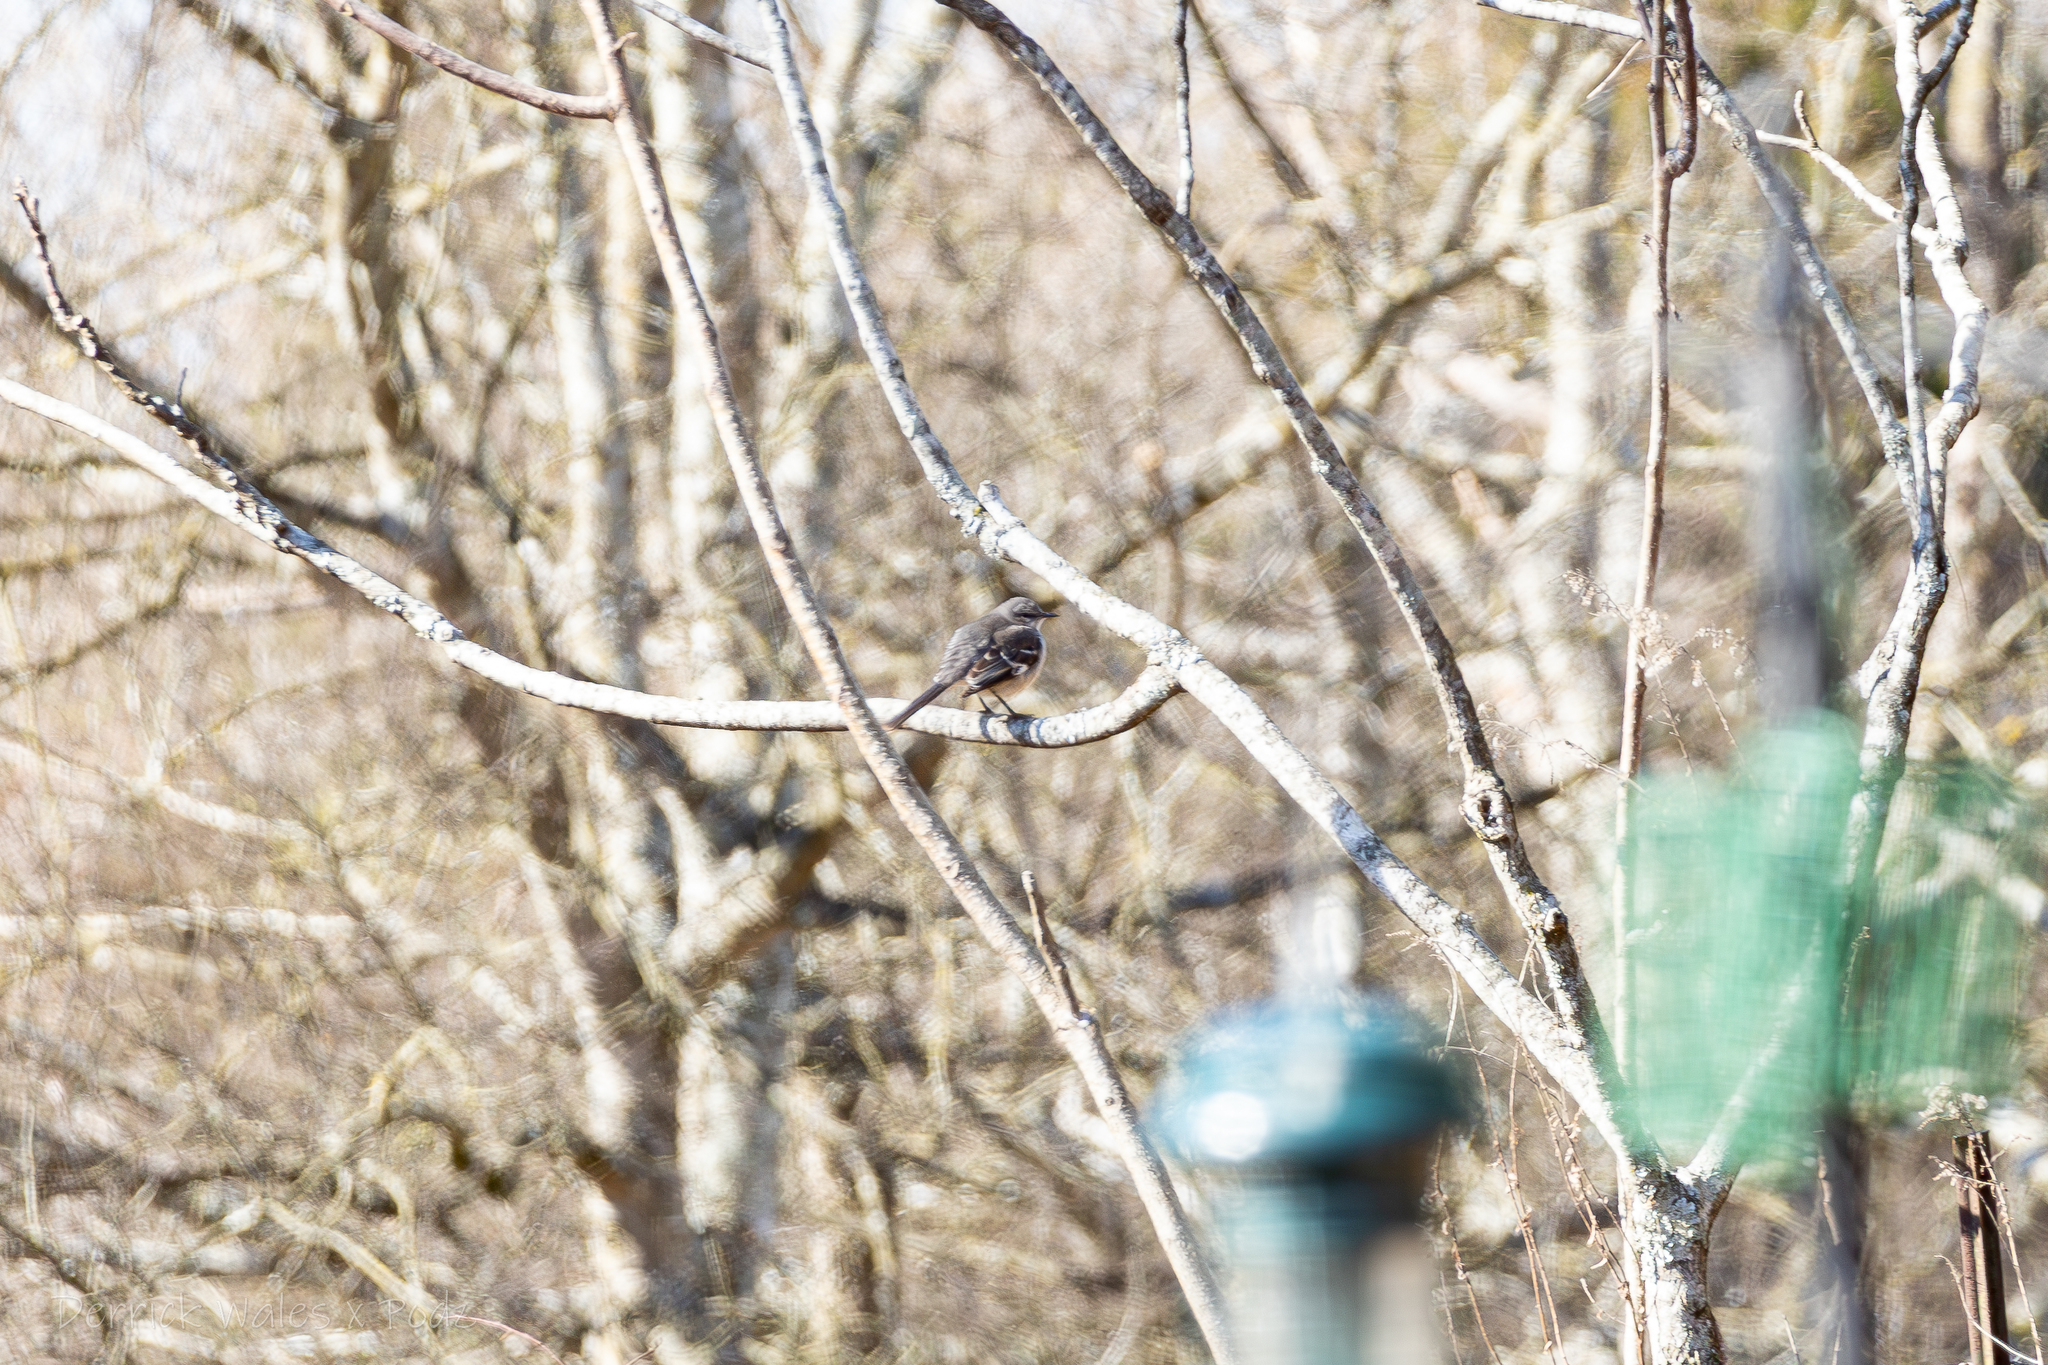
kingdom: Animalia
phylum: Chordata
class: Aves
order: Passeriformes
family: Mimidae
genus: Mimus
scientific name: Mimus polyglottos
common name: Northern mockingbird
